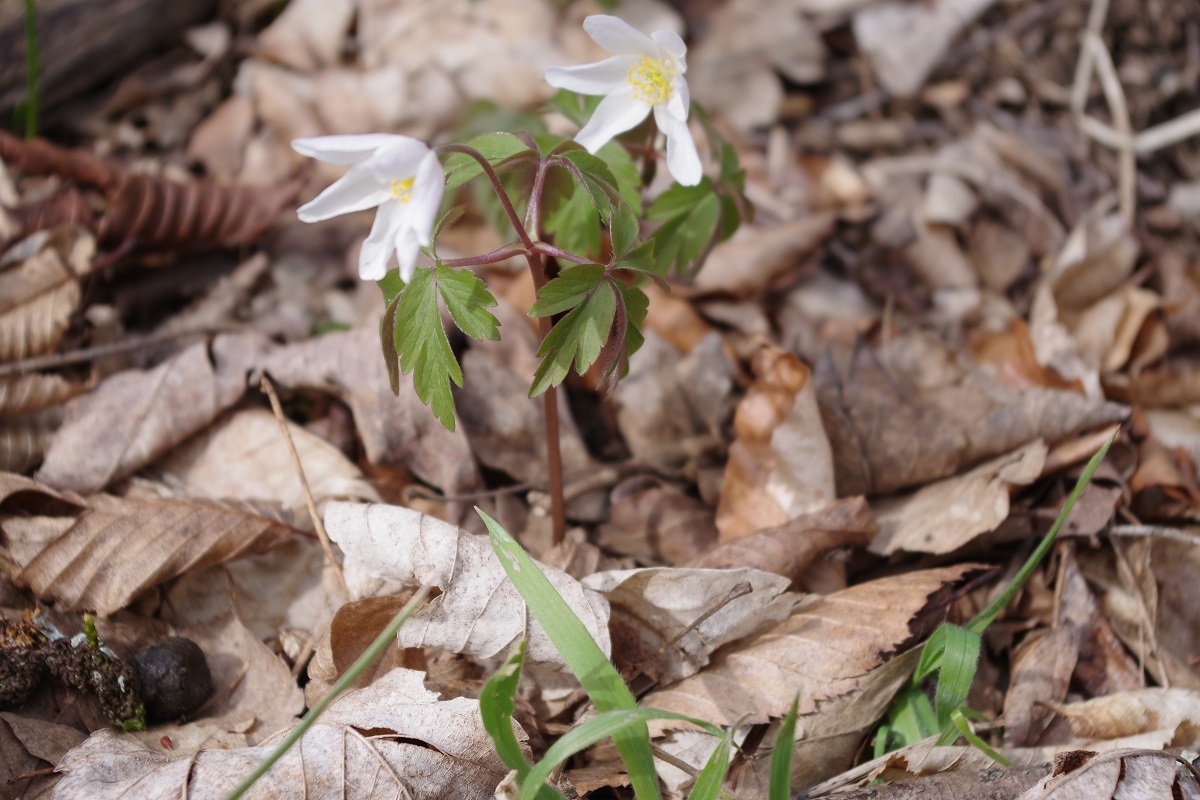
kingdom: Plantae
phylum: Tracheophyta
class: Magnoliopsida
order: Ranunculales
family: Ranunculaceae
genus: Anemone
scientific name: Anemone nemorosa
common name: Wood anemone
